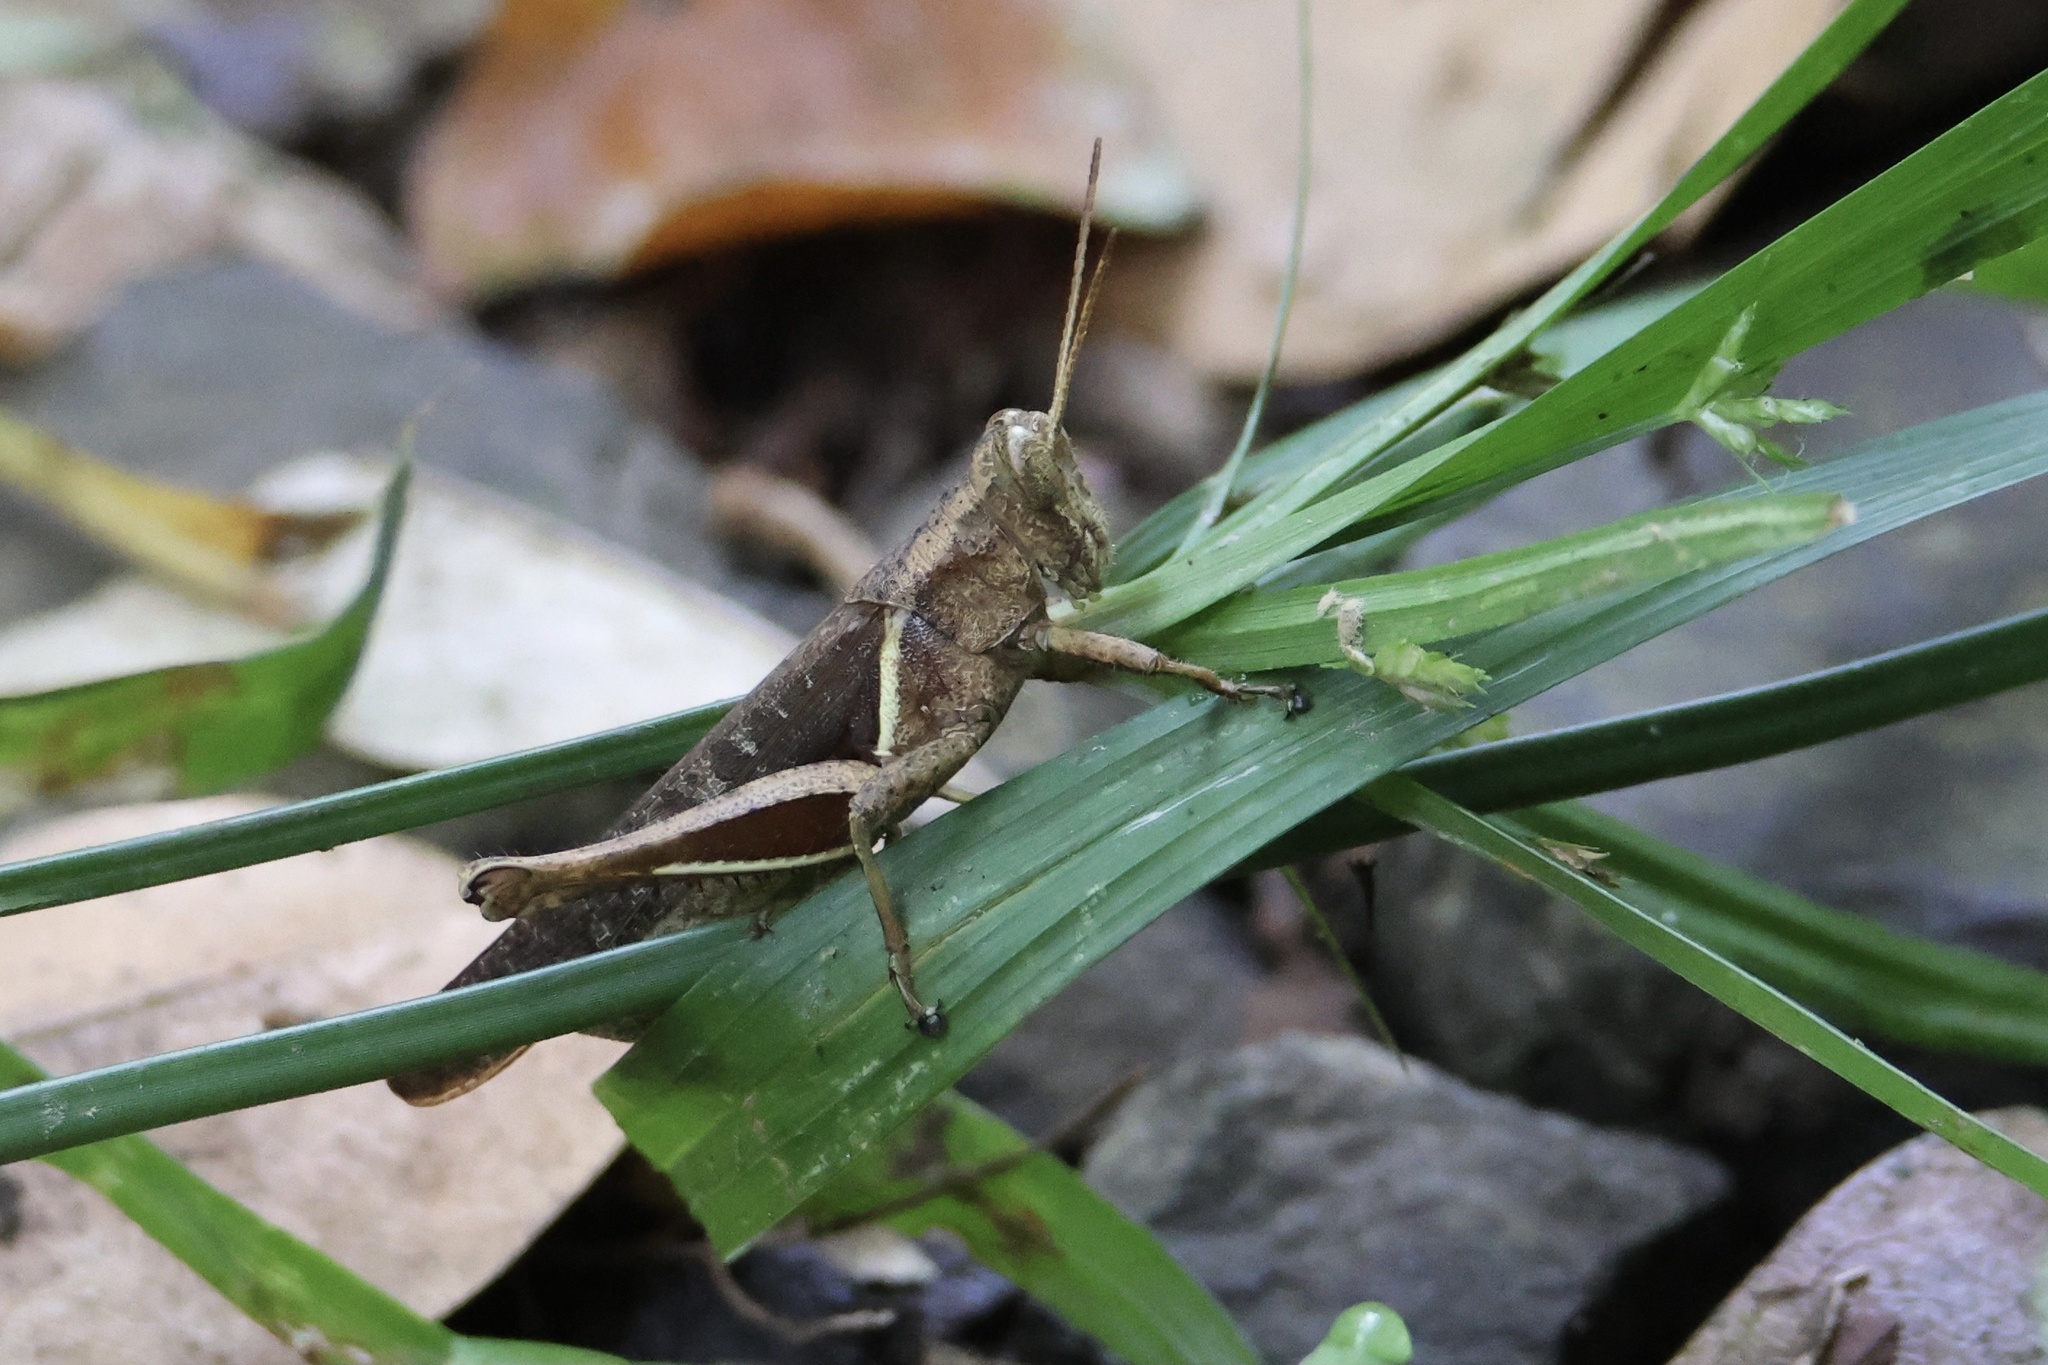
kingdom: Animalia
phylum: Arthropoda
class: Insecta
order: Orthoptera
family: Acrididae
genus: Abracris
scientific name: Abracris flavolineata
